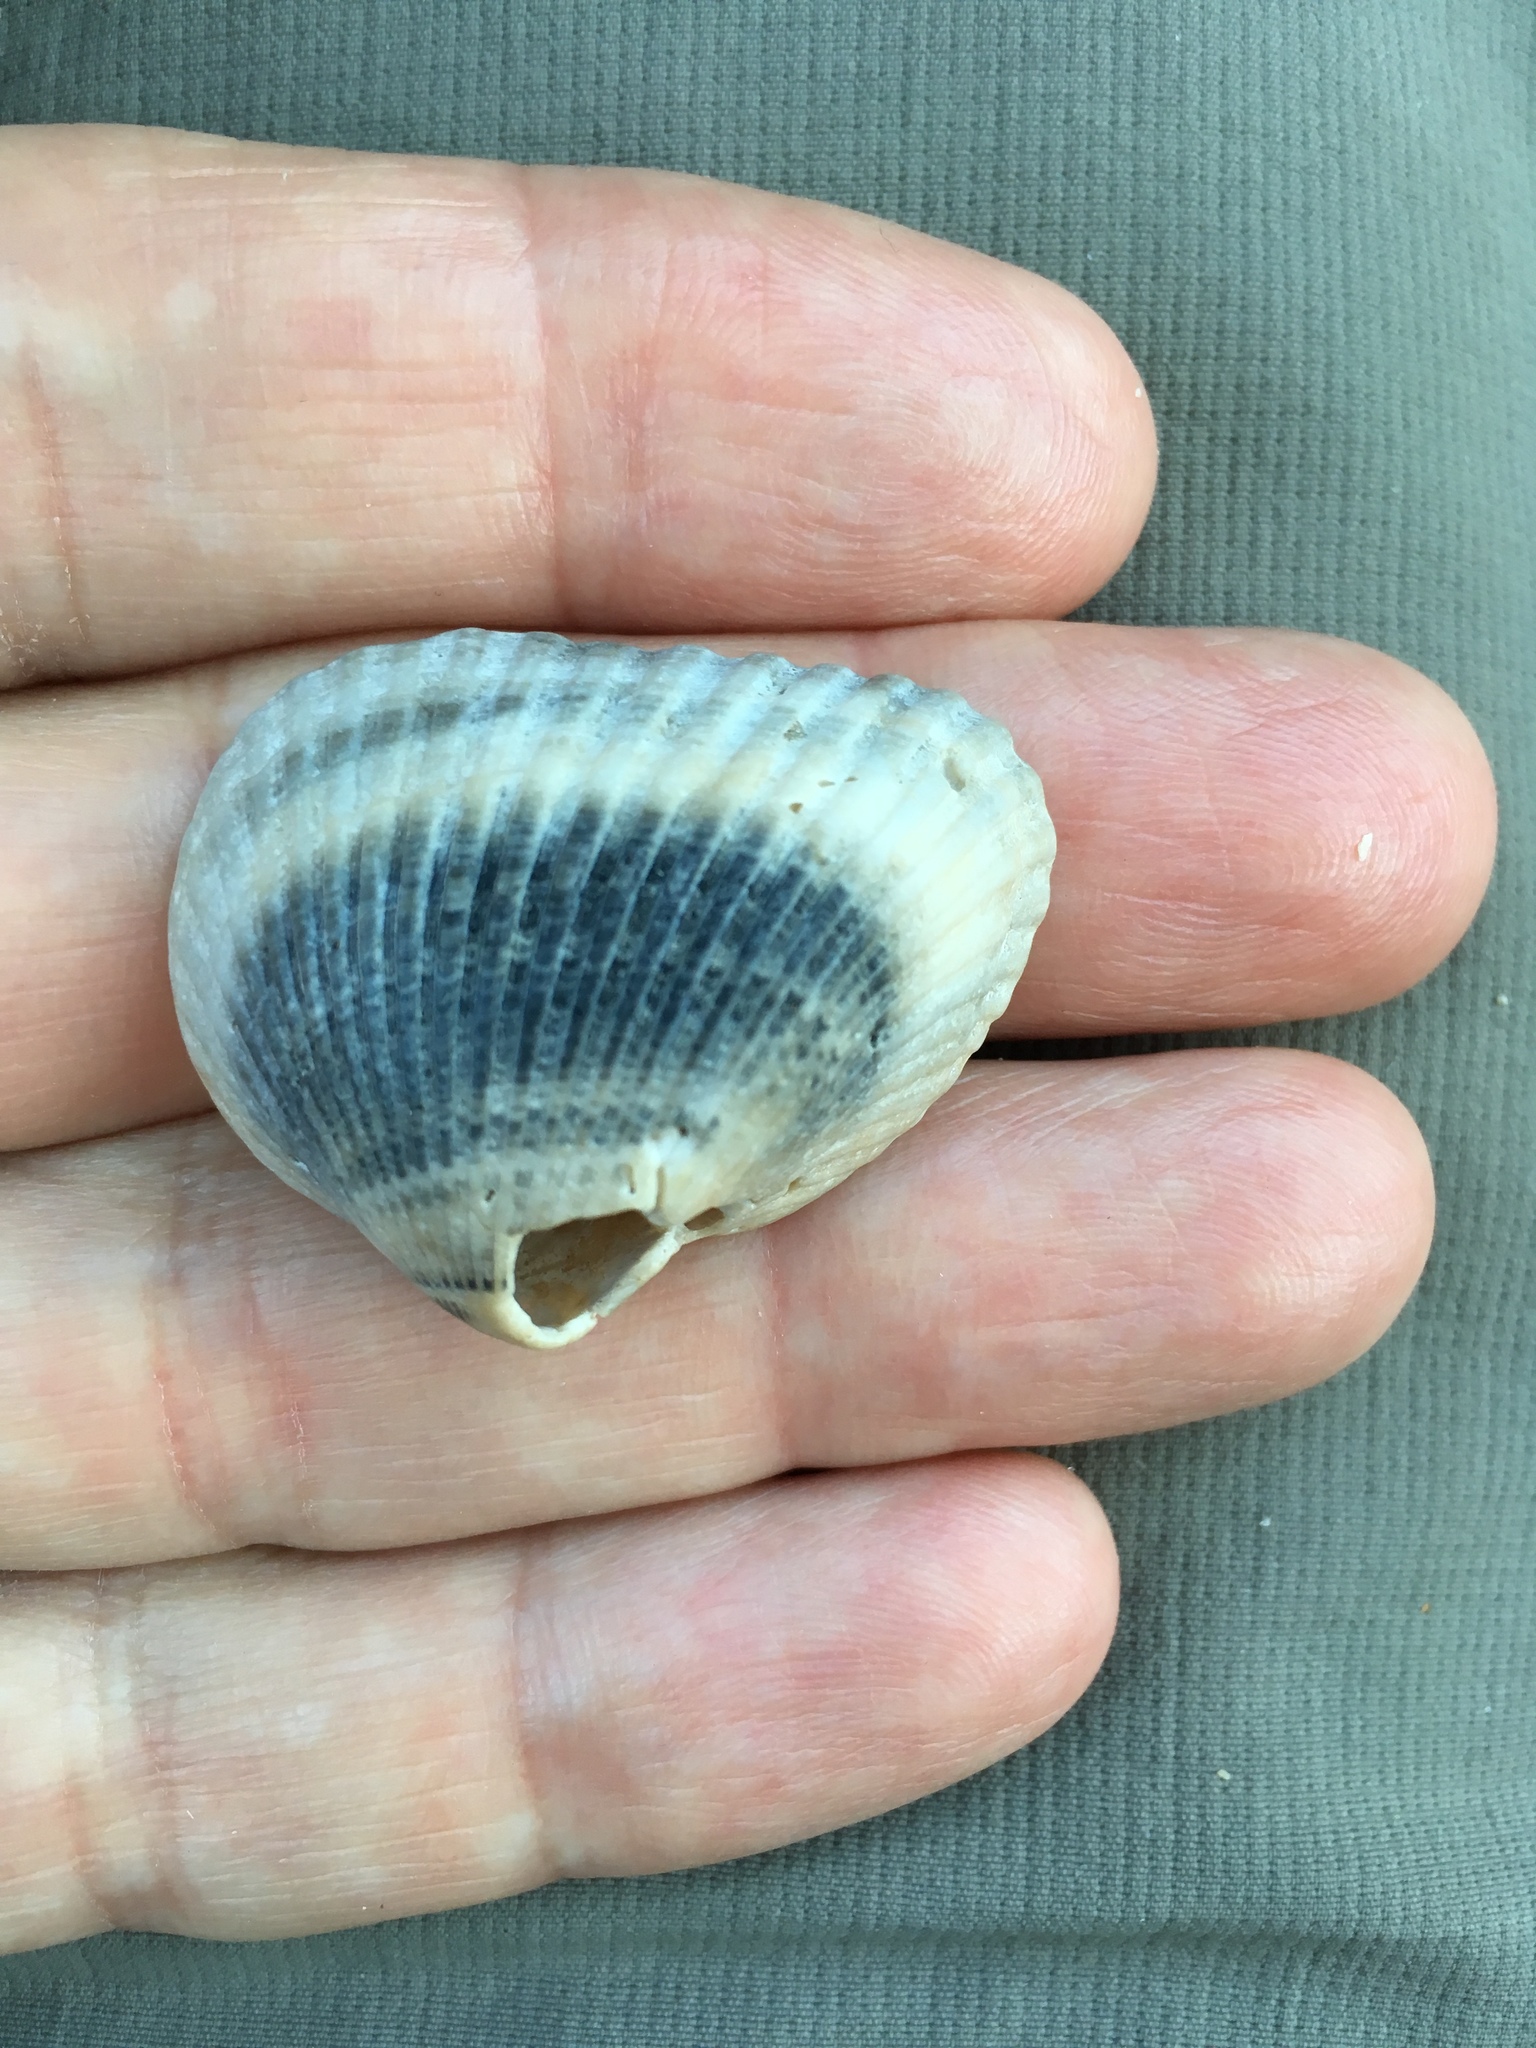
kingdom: Animalia
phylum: Mollusca
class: Bivalvia
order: Arcida
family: Noetiidae
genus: Noetia
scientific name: Noetia ponderosa
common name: Ponderous ark
